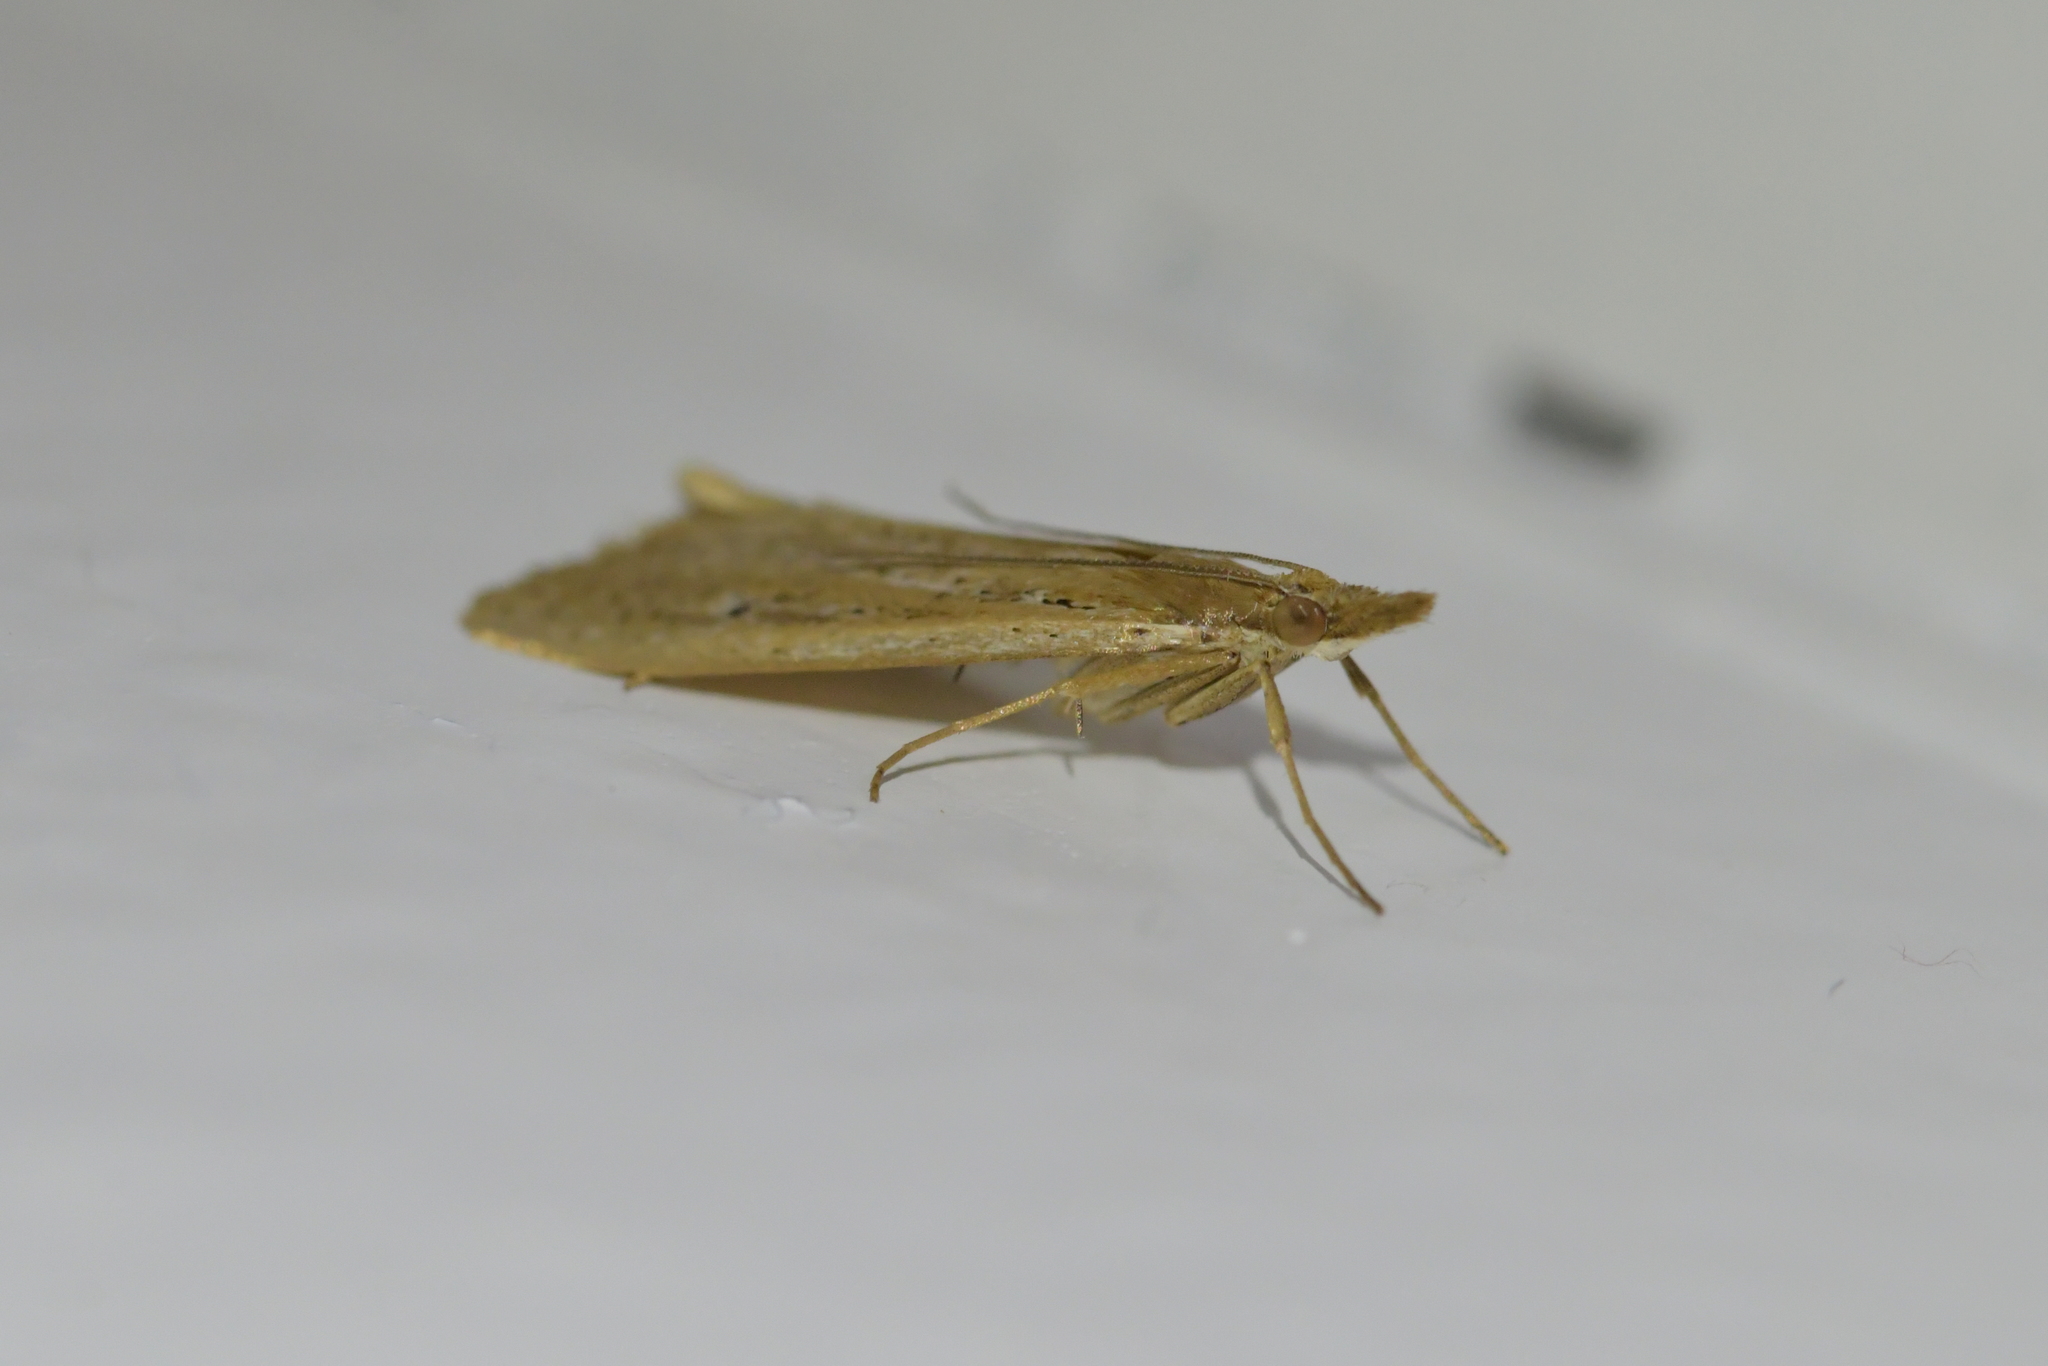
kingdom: Animalia
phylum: Arthropoda
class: Insecta
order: Lepidoptera
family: Crambidae
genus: Eudonia
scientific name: Eudonia sabulosella
